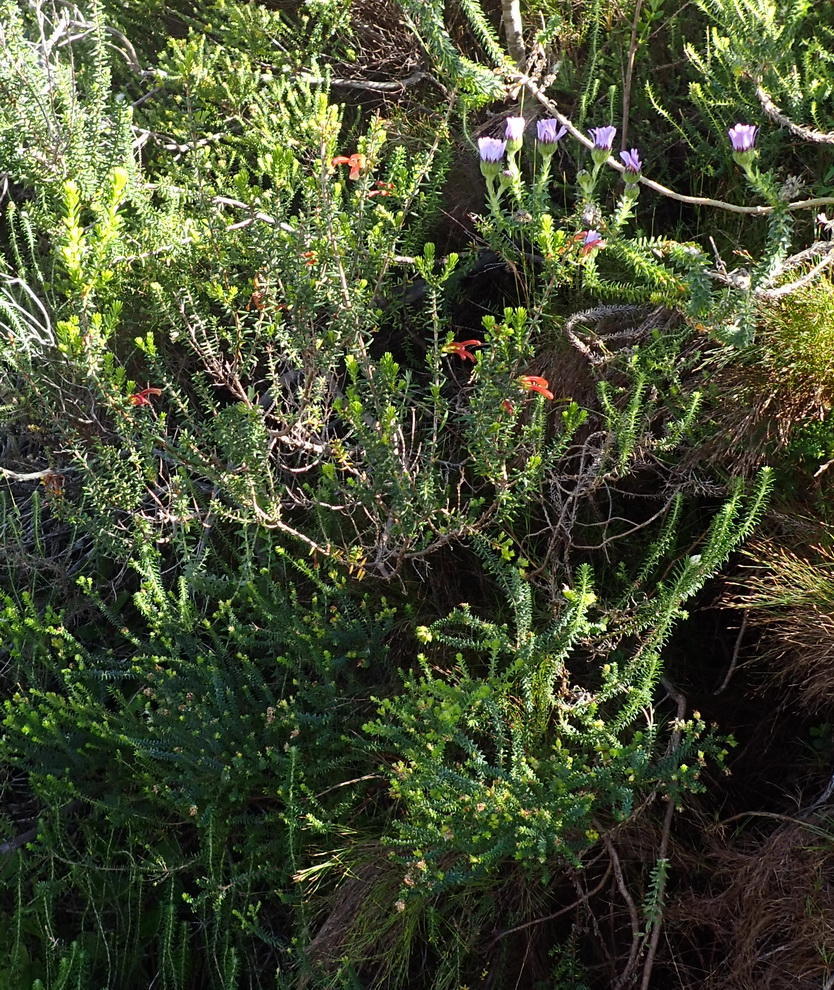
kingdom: Plantae
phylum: Tracheophyta
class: Magnoliopsida
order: Ericales
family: Ericaceae
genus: Erica
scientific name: Erica glandulosa
